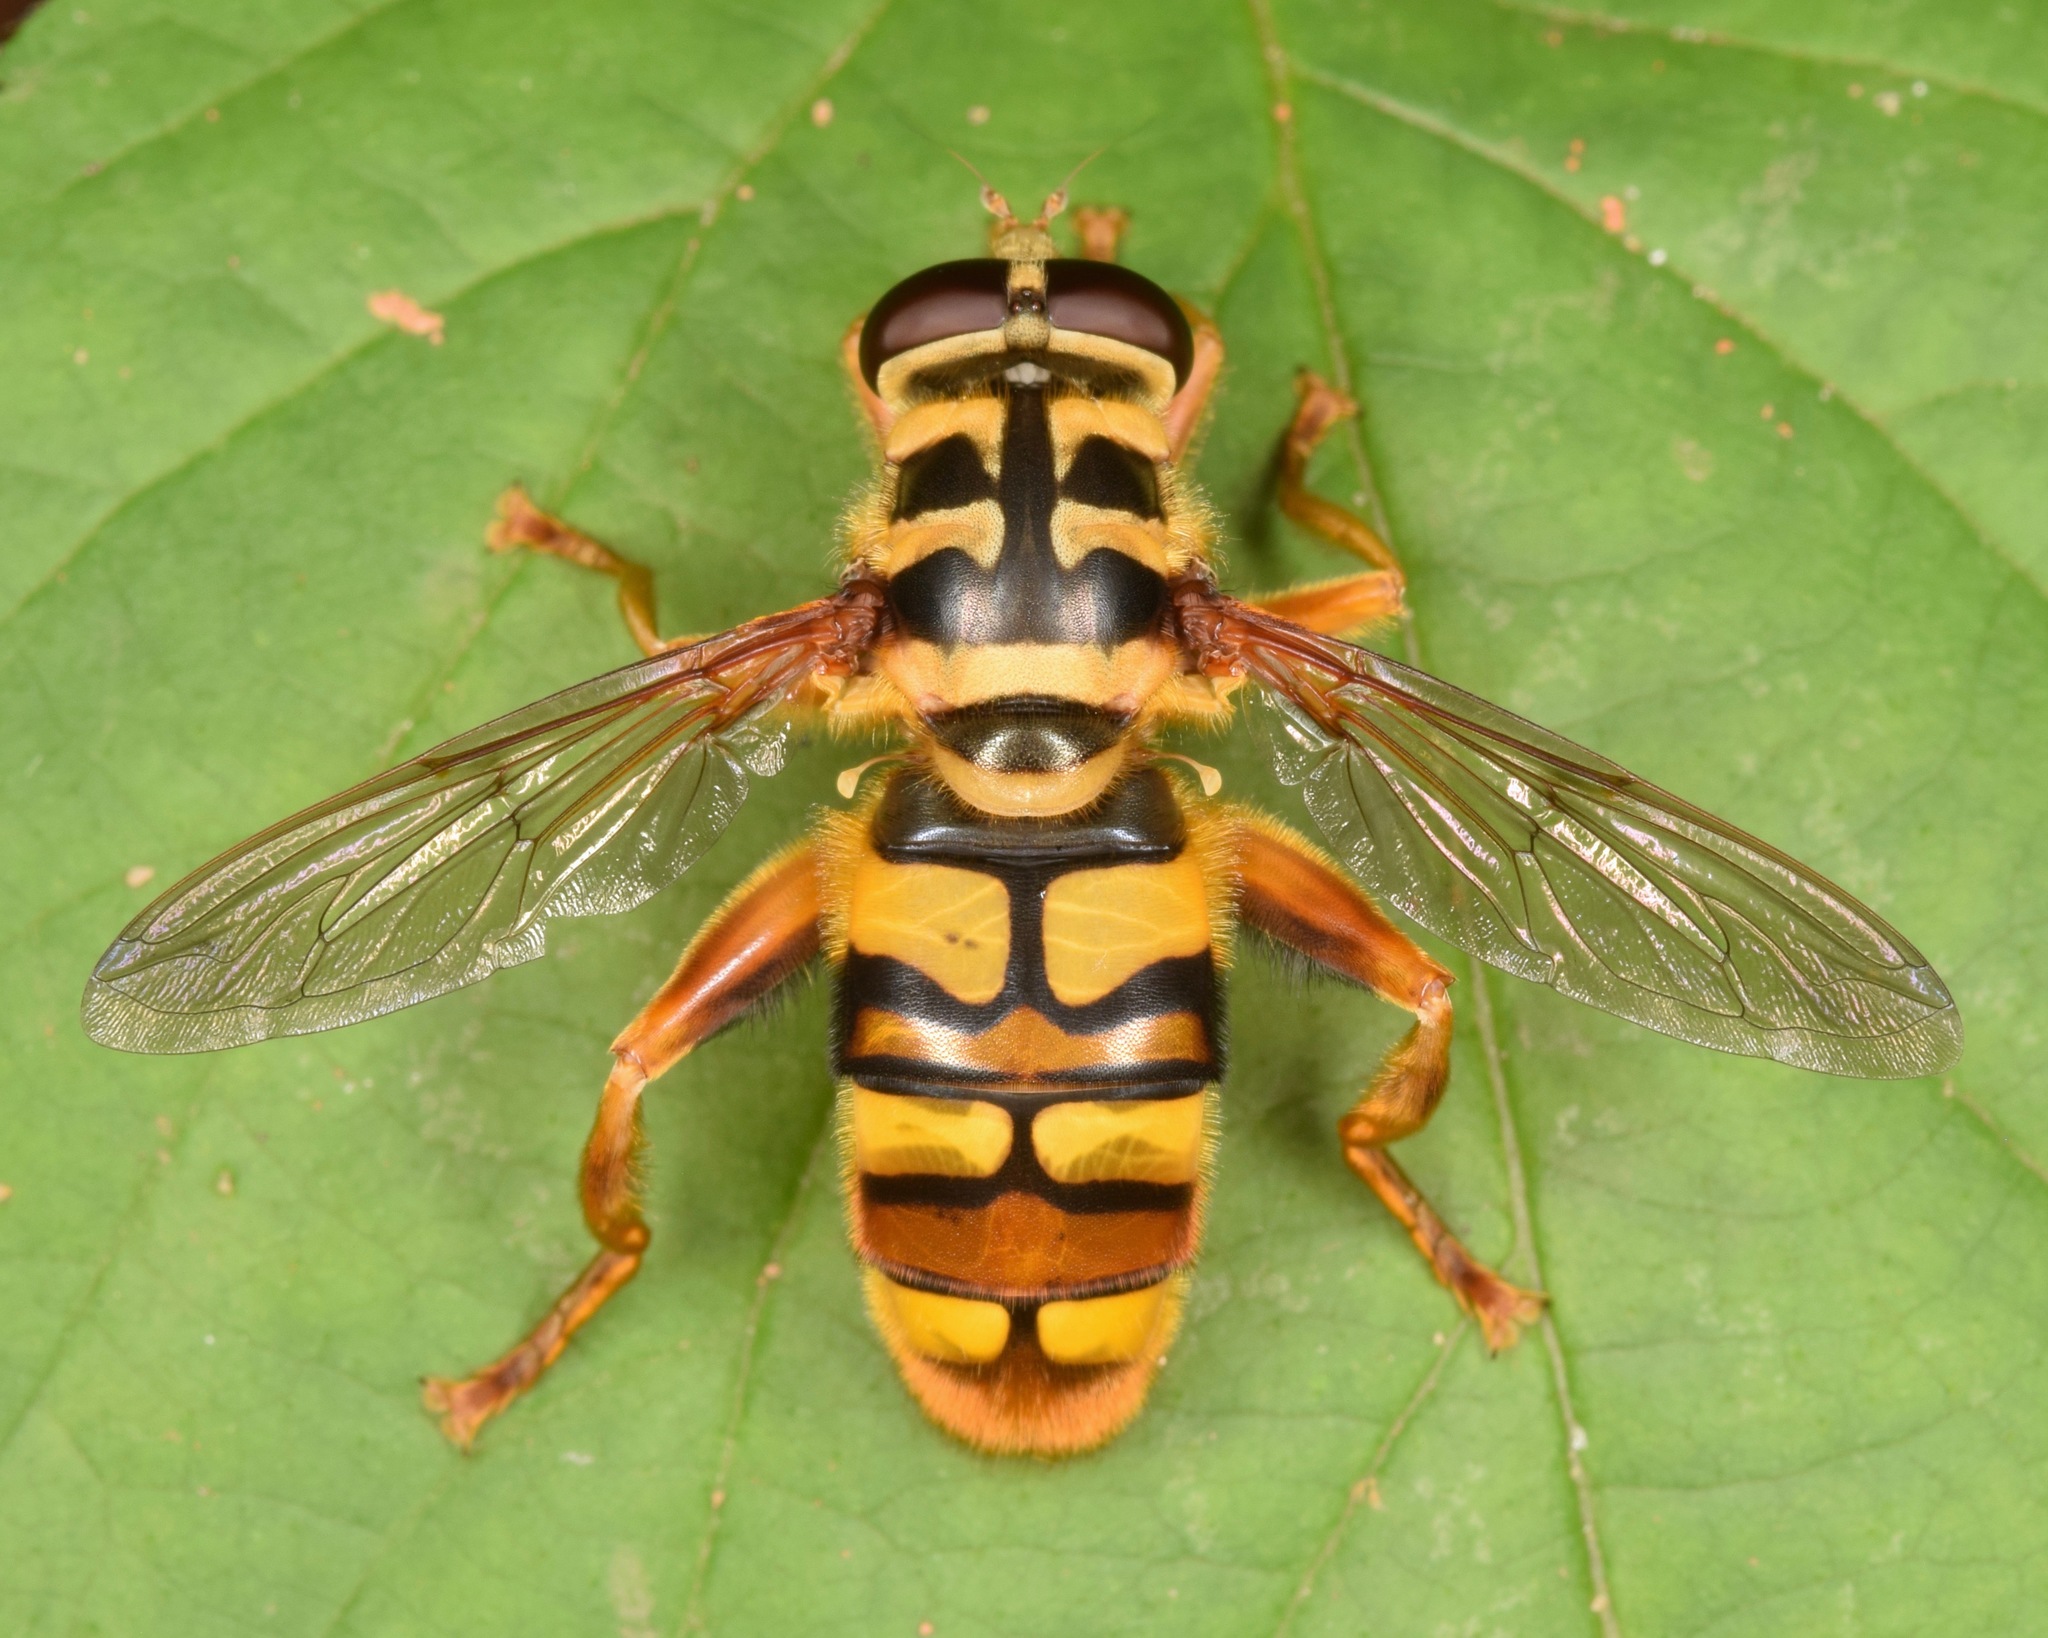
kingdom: Animalia
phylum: Arthropoda
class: Insecta
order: Diptera
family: Syrphidae
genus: Milesia
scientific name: Milesia virginiensis
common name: Virginia giant
